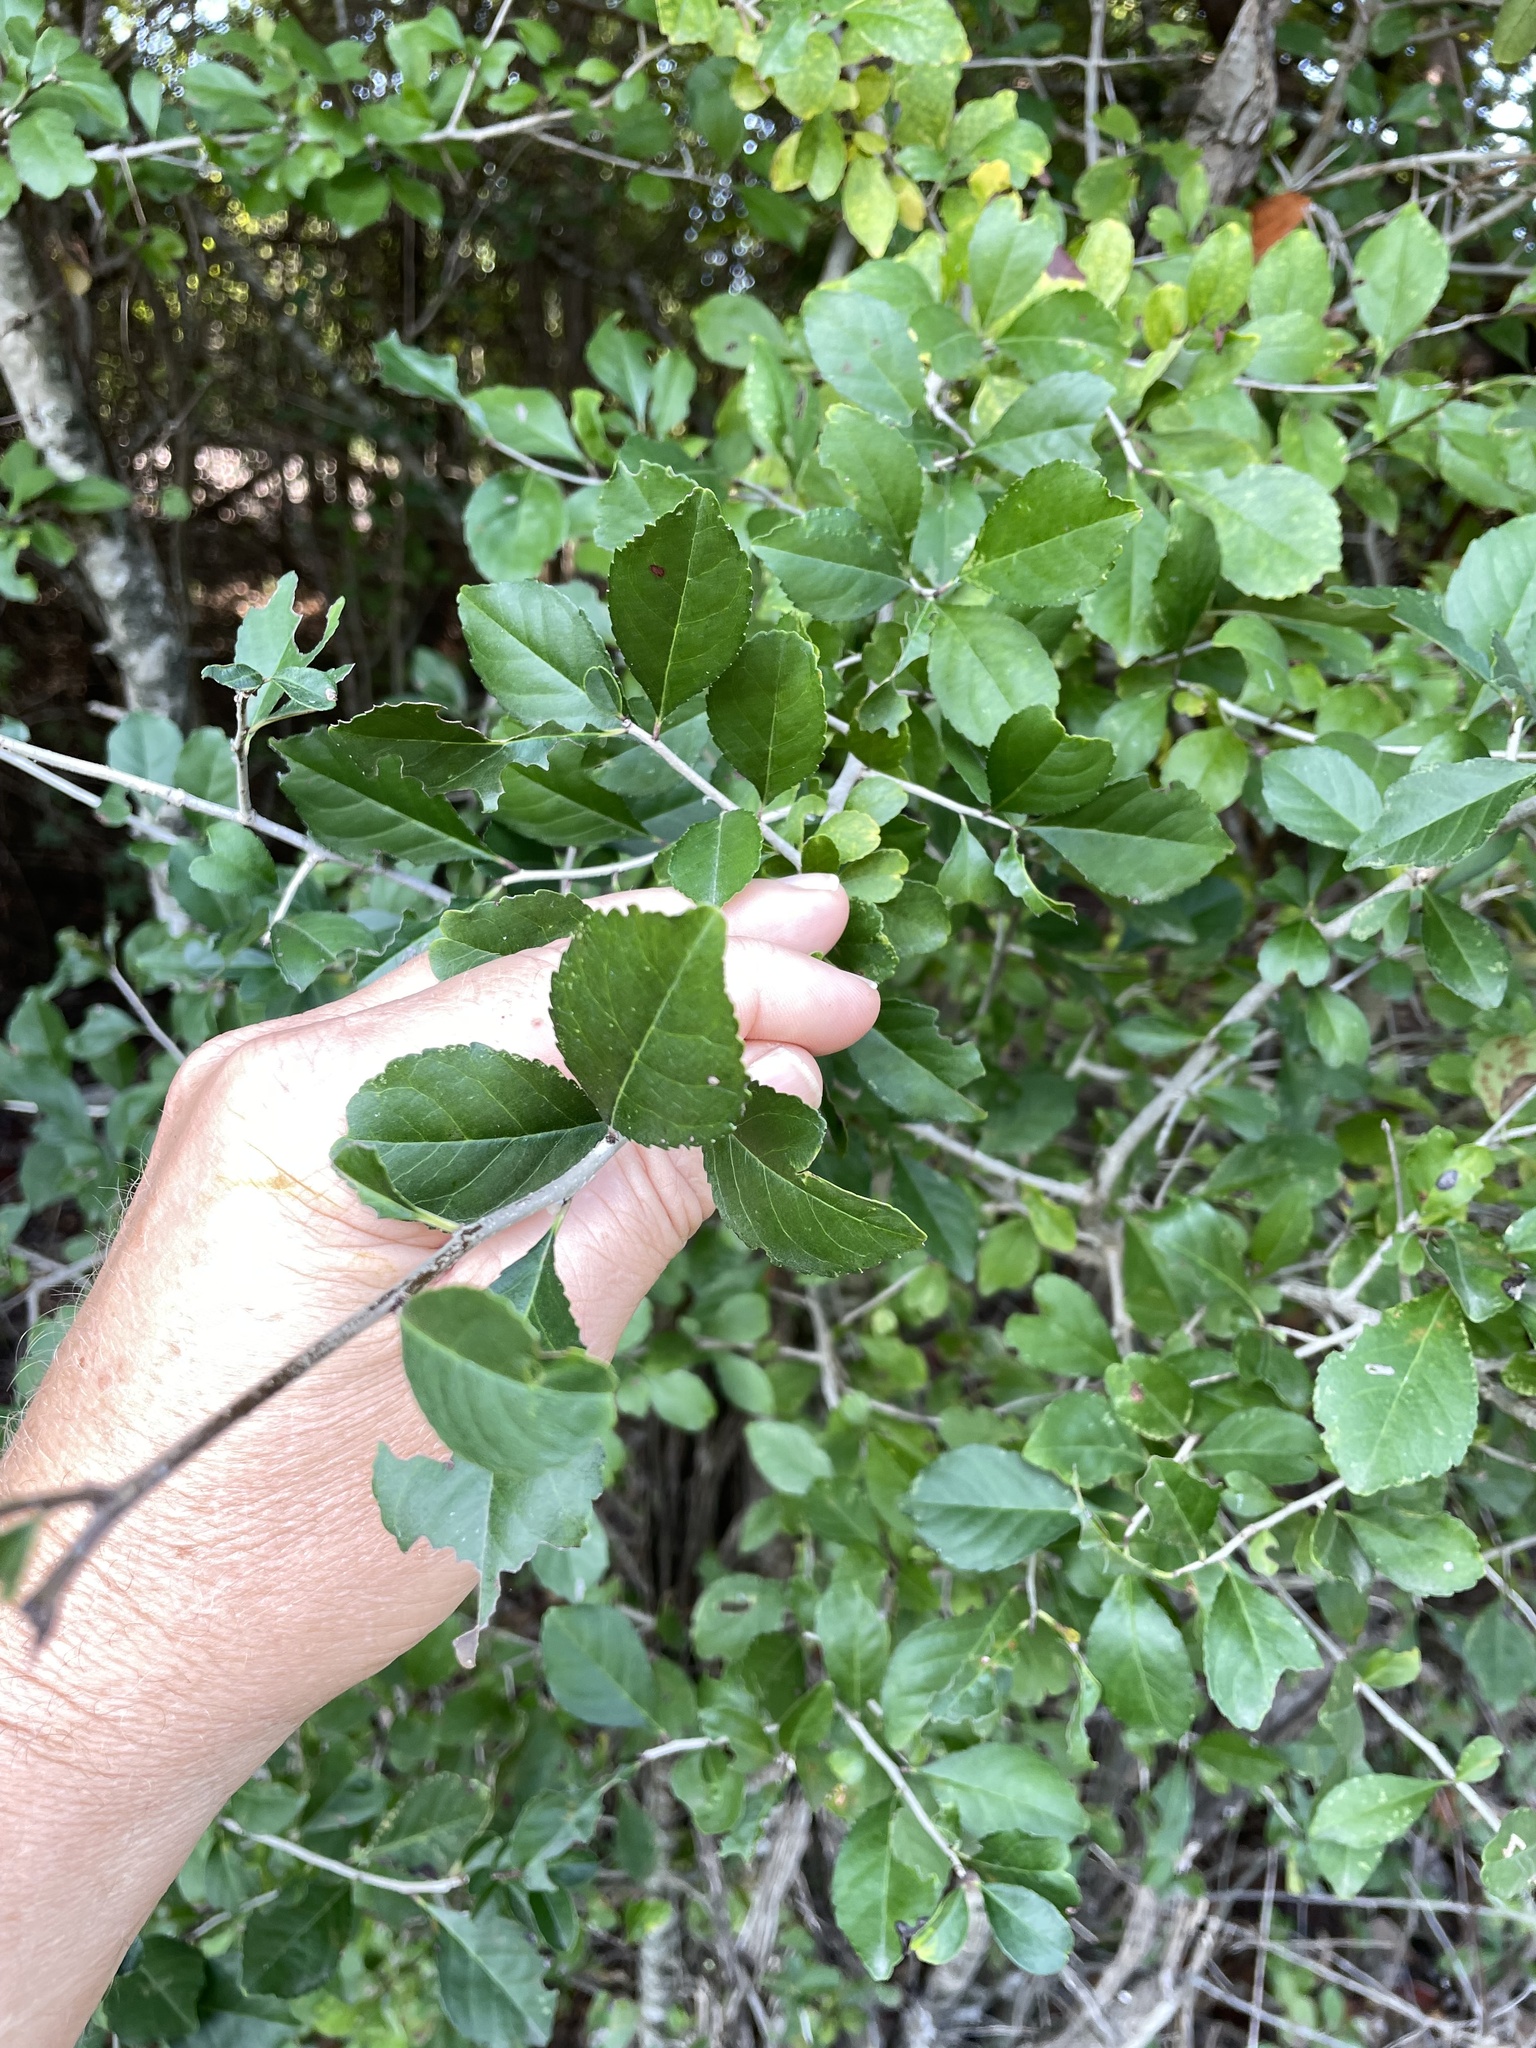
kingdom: Plantae
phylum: Tracheophyta
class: Magnoliopsida
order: Aquifoliales
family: Aquifoliaceae
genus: Ilex
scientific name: Ilex decidua
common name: Possum-haw
